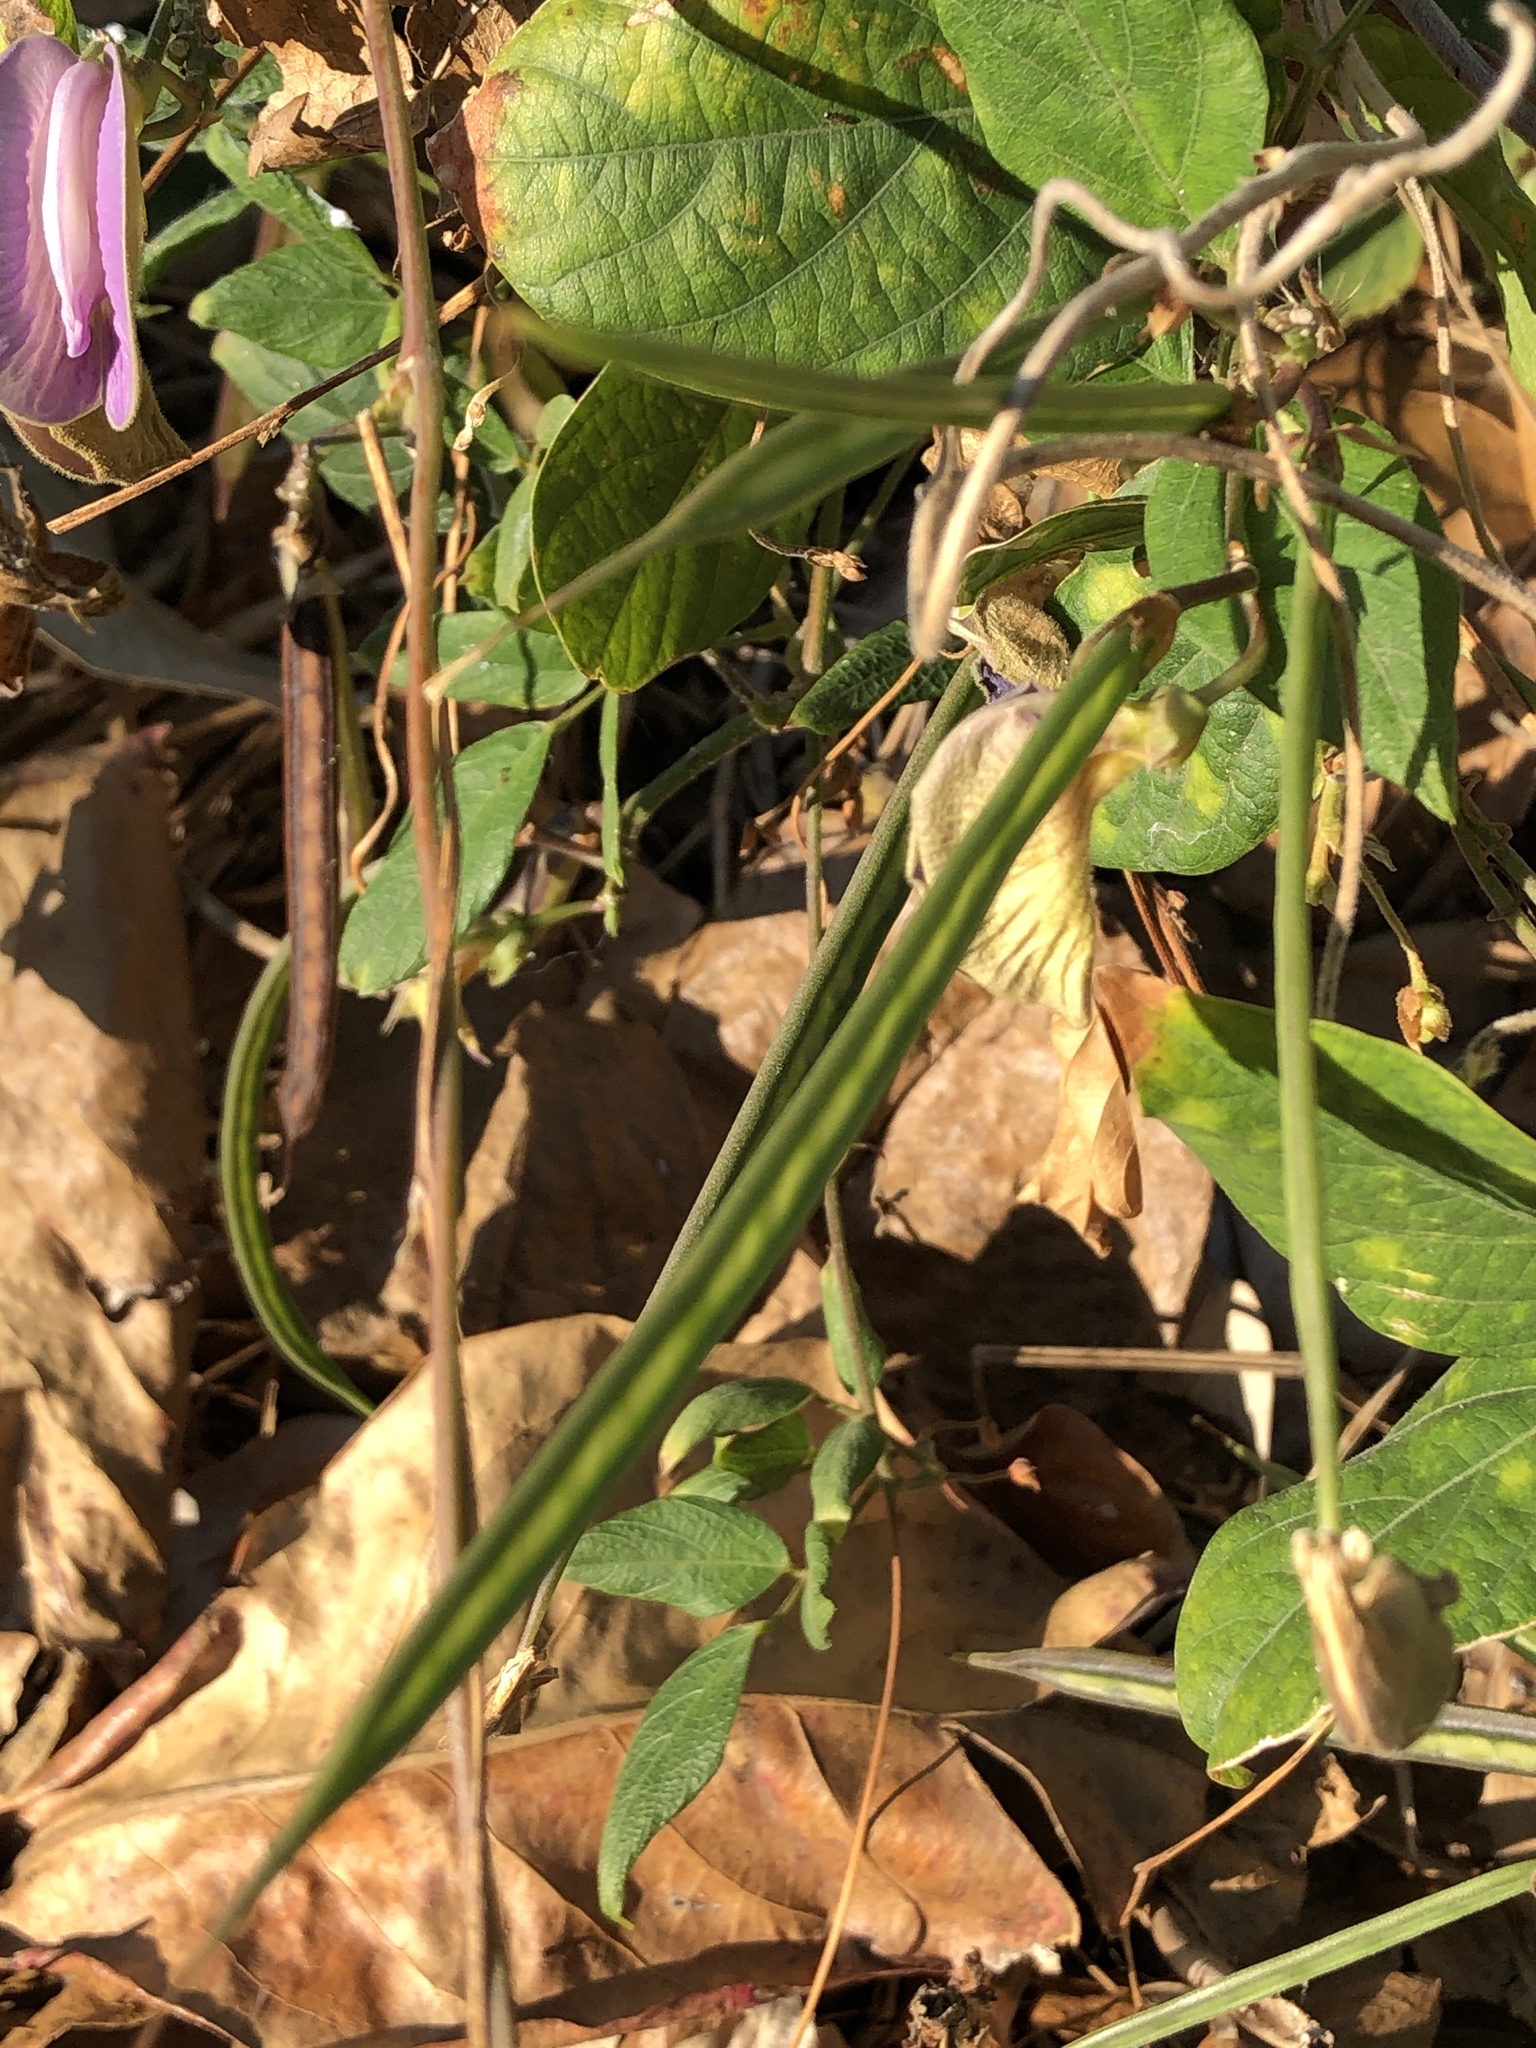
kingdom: Plantae
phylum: Tracheophyta
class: Magnoliopsida
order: Fabales
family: Fabaceae
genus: Centrosema
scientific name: Centrosema molle
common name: Soft butterfly pea
